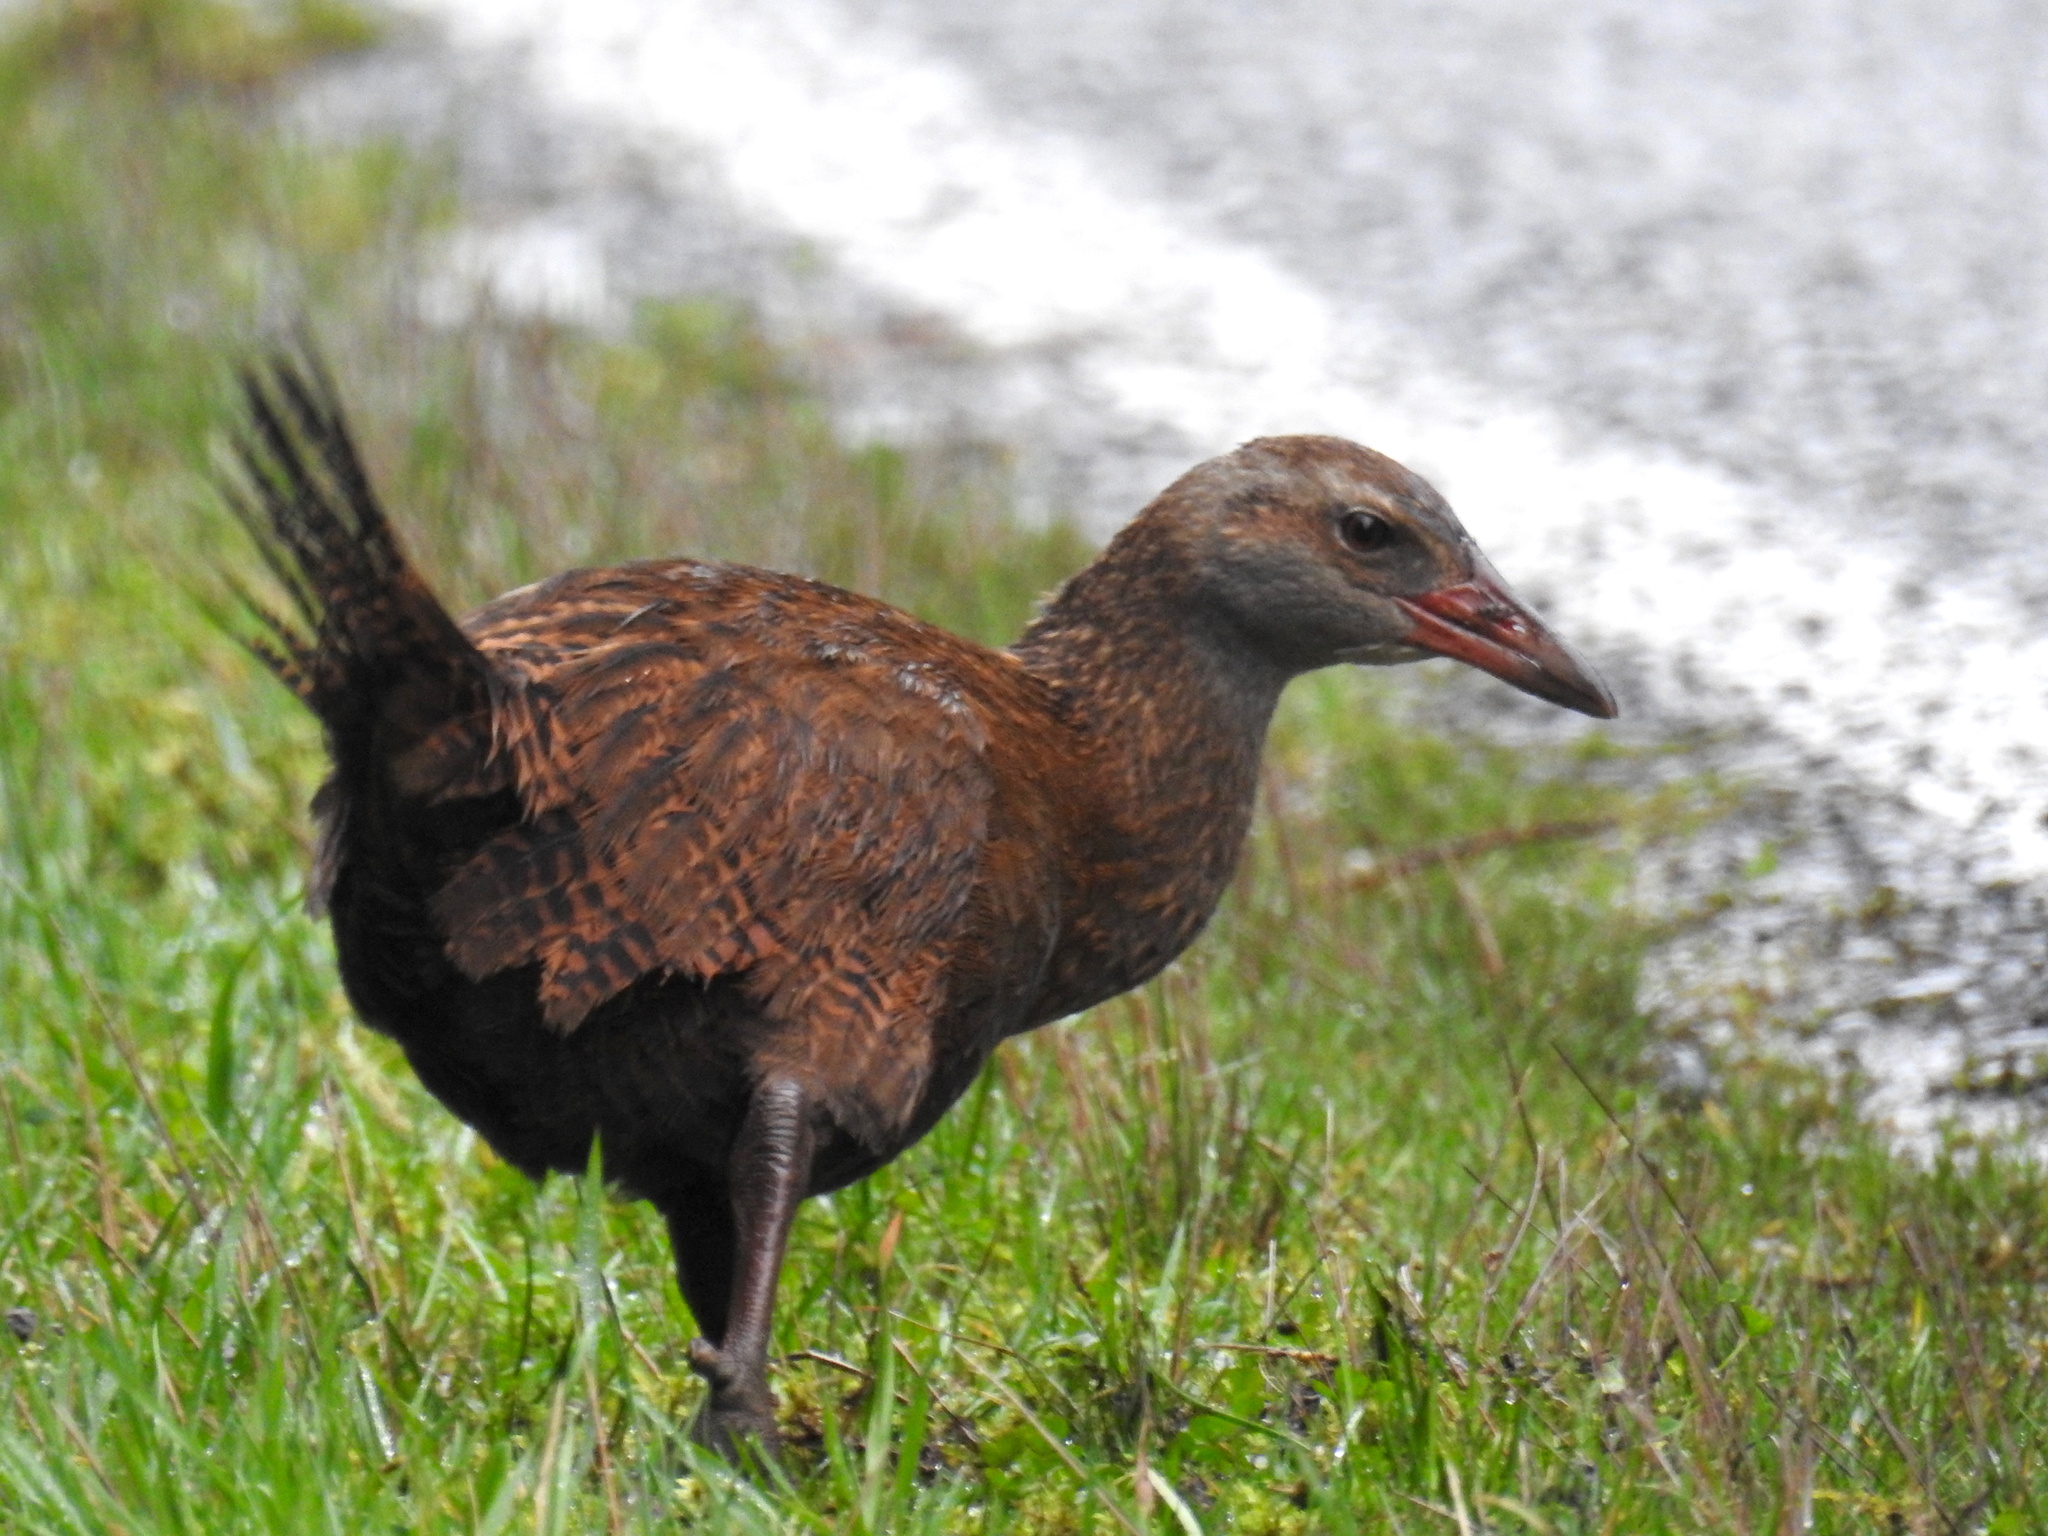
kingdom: Animalia
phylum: Chordata
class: Aves
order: Gruiformes
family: Rallidae
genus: Gallirallus
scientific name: Gallirallus australis
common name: Weka
